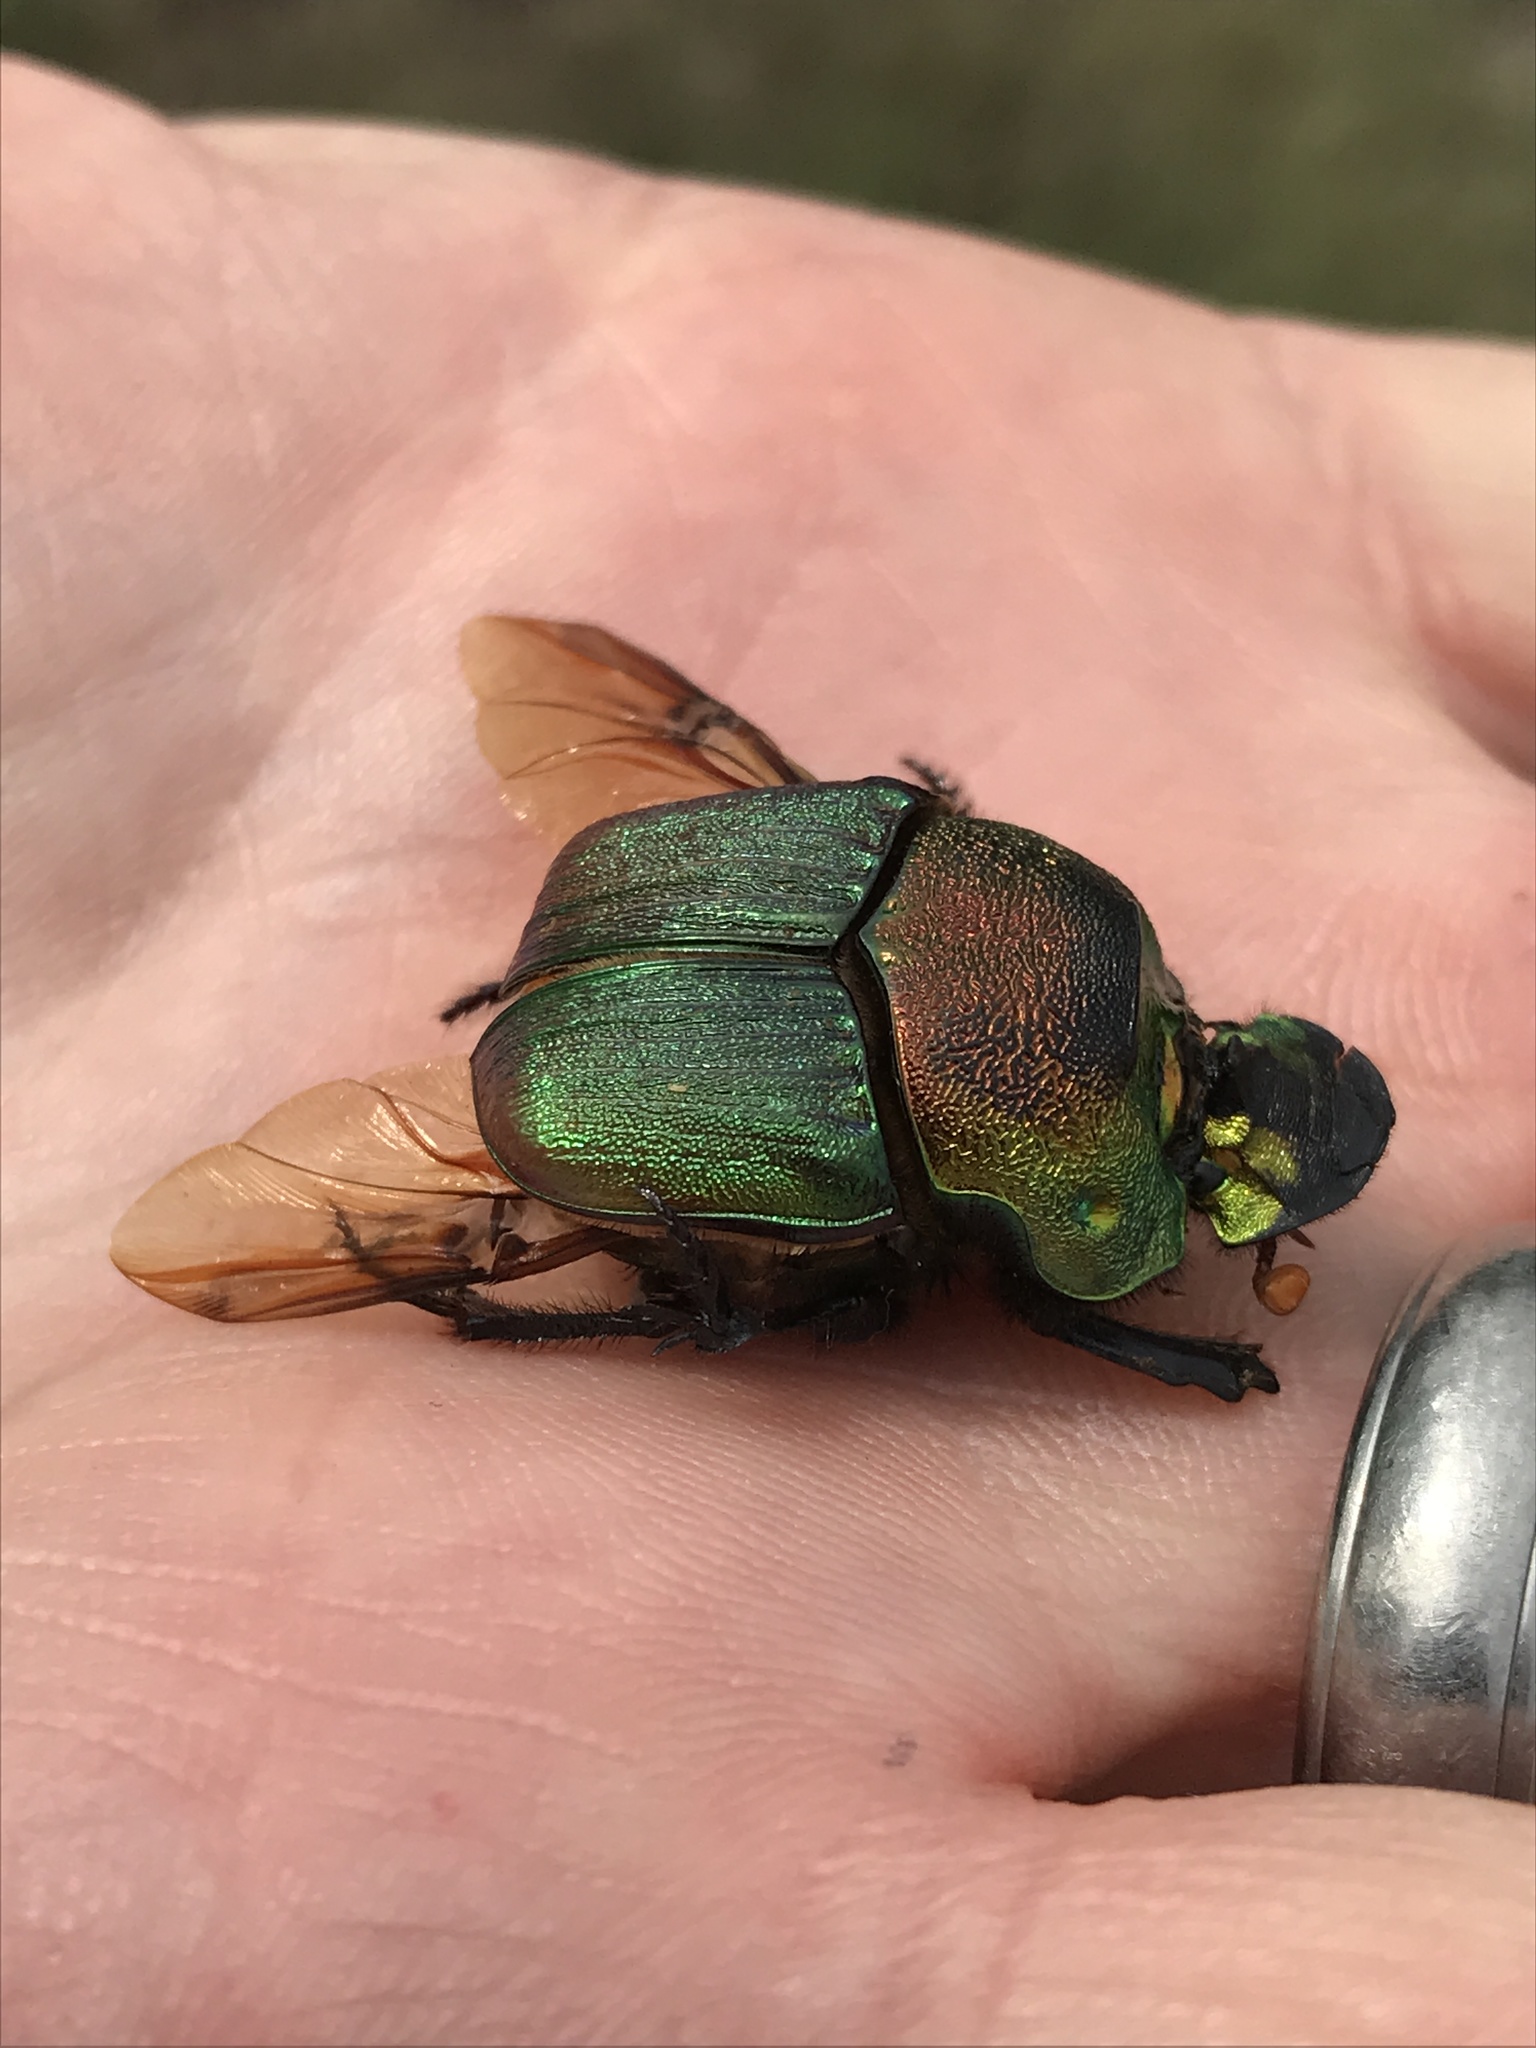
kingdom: Animalia
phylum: Arthropoda
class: Insecta
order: Coleoptera
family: Scarabaeidae
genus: Phanaeus
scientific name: Phanaeus vindex
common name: Rainbow scarab
